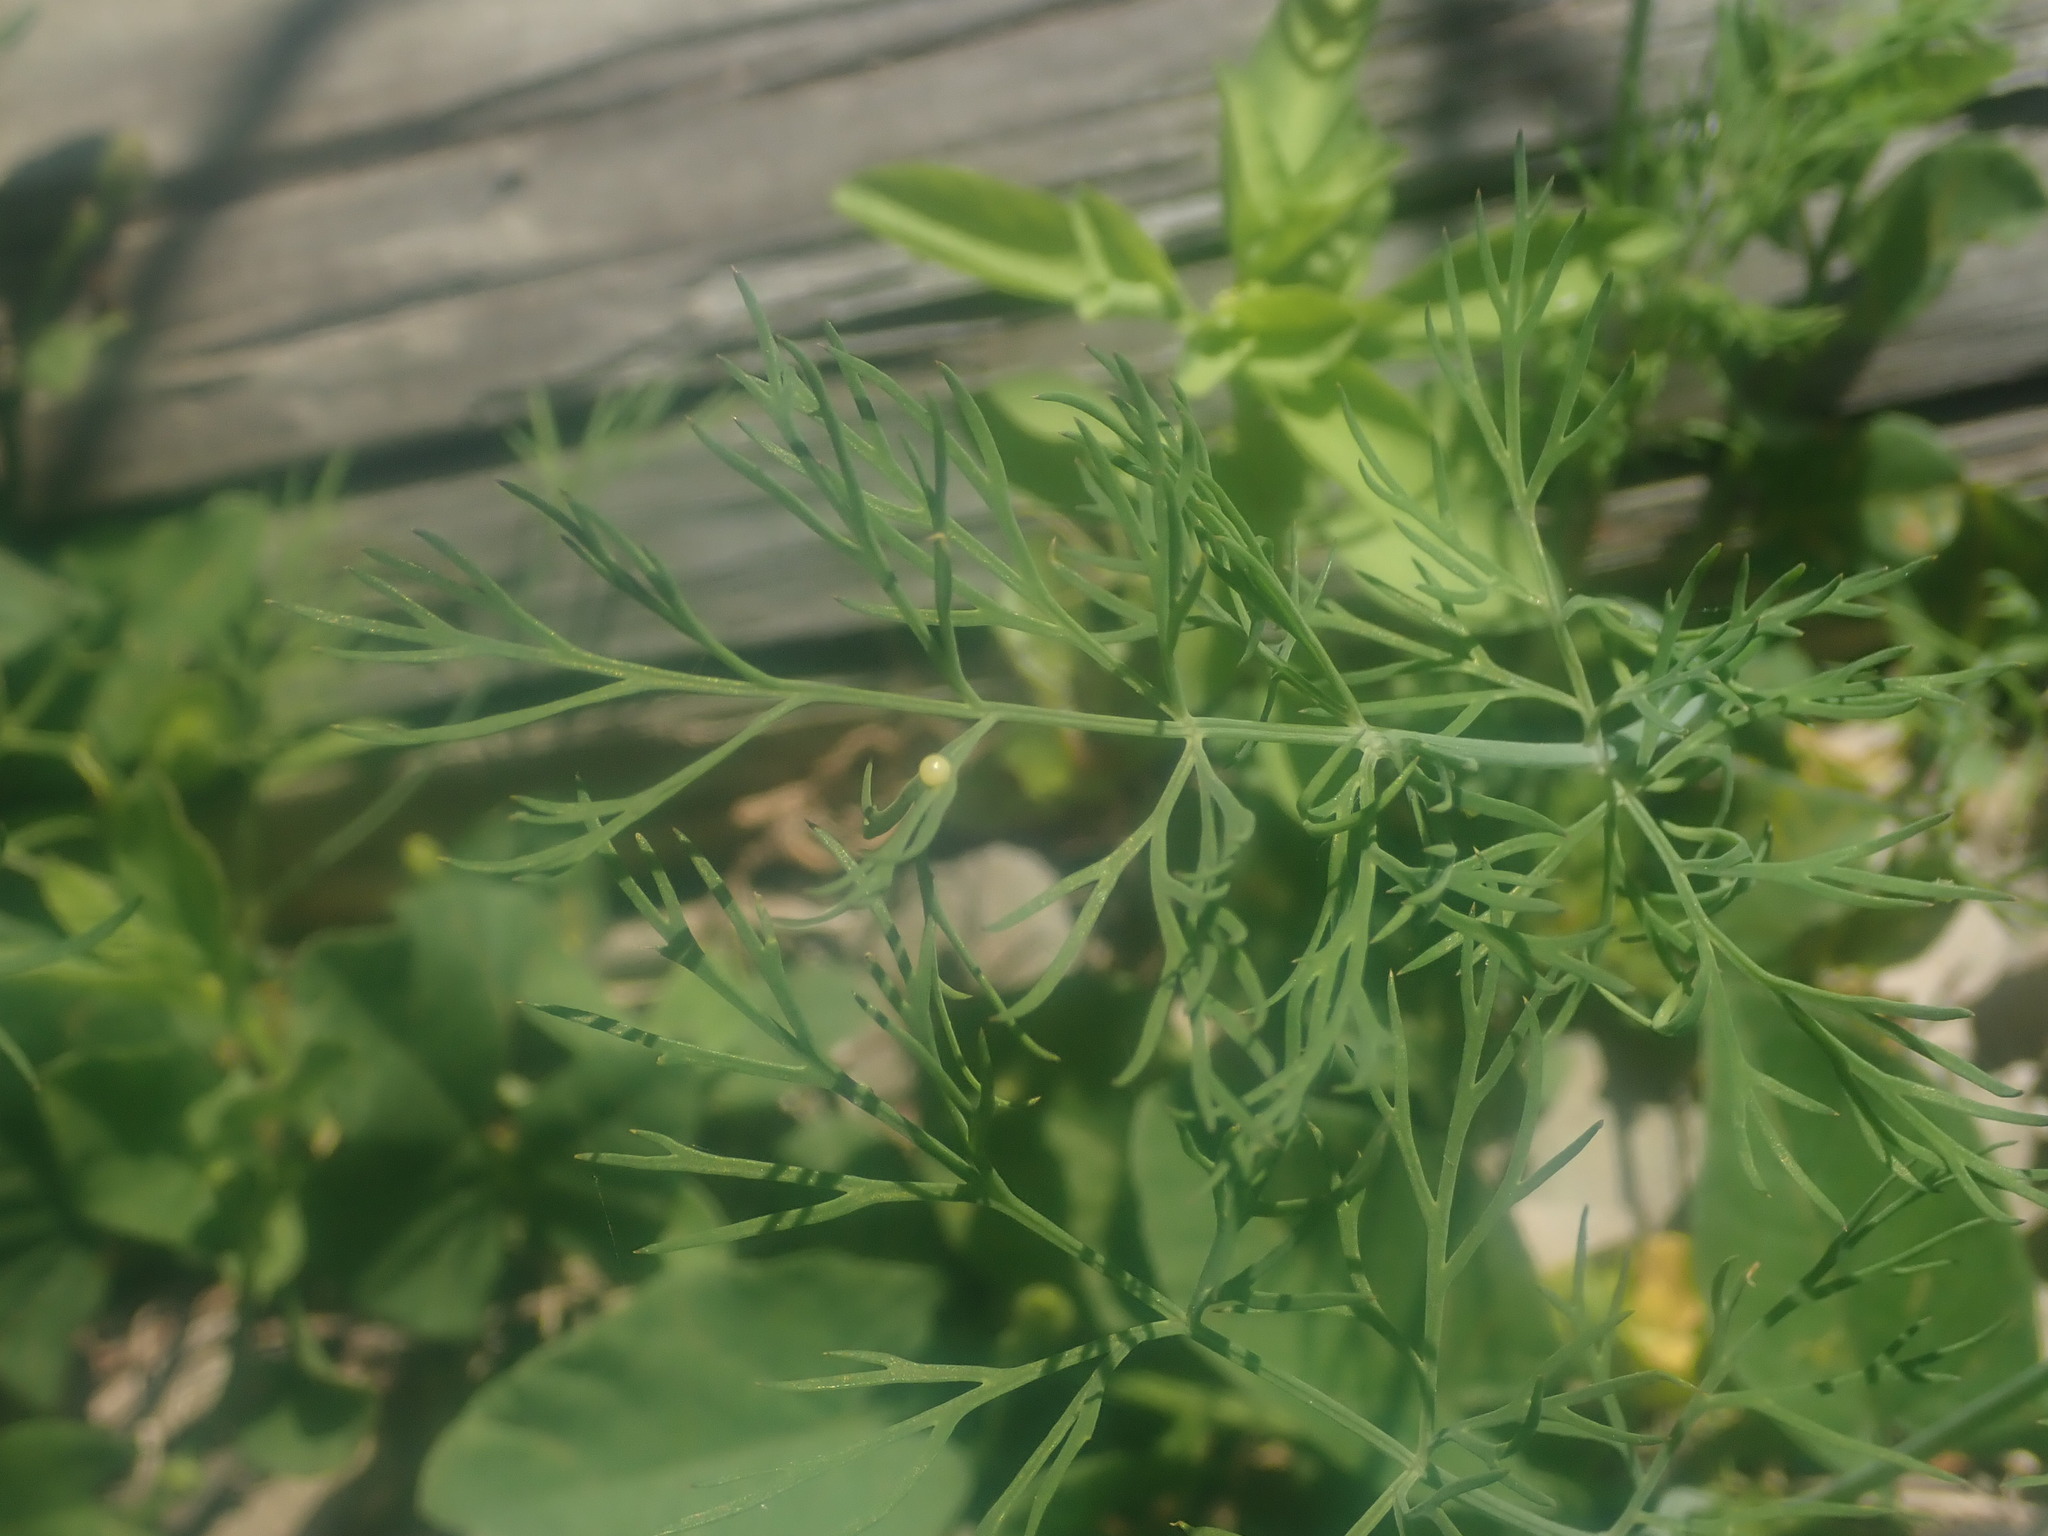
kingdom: Animalia
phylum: Arthropoda
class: Insecta
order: Lepidoptera
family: Papilionidae
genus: Papilio
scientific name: Papilio polyxenes
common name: Black swallowtail
